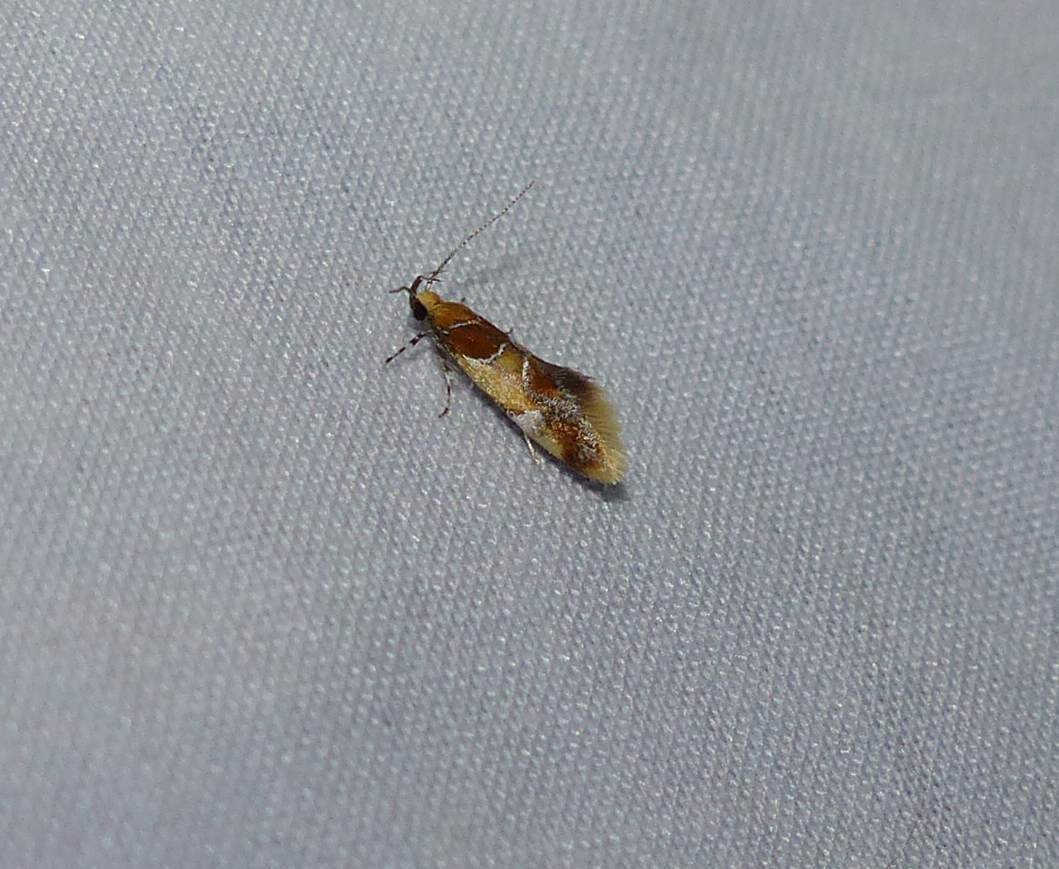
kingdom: Animalia
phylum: Arthropoda
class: Insecta
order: Lepidoptera
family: Oecophoridae
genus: Callima
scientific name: Callima argenticinctella
